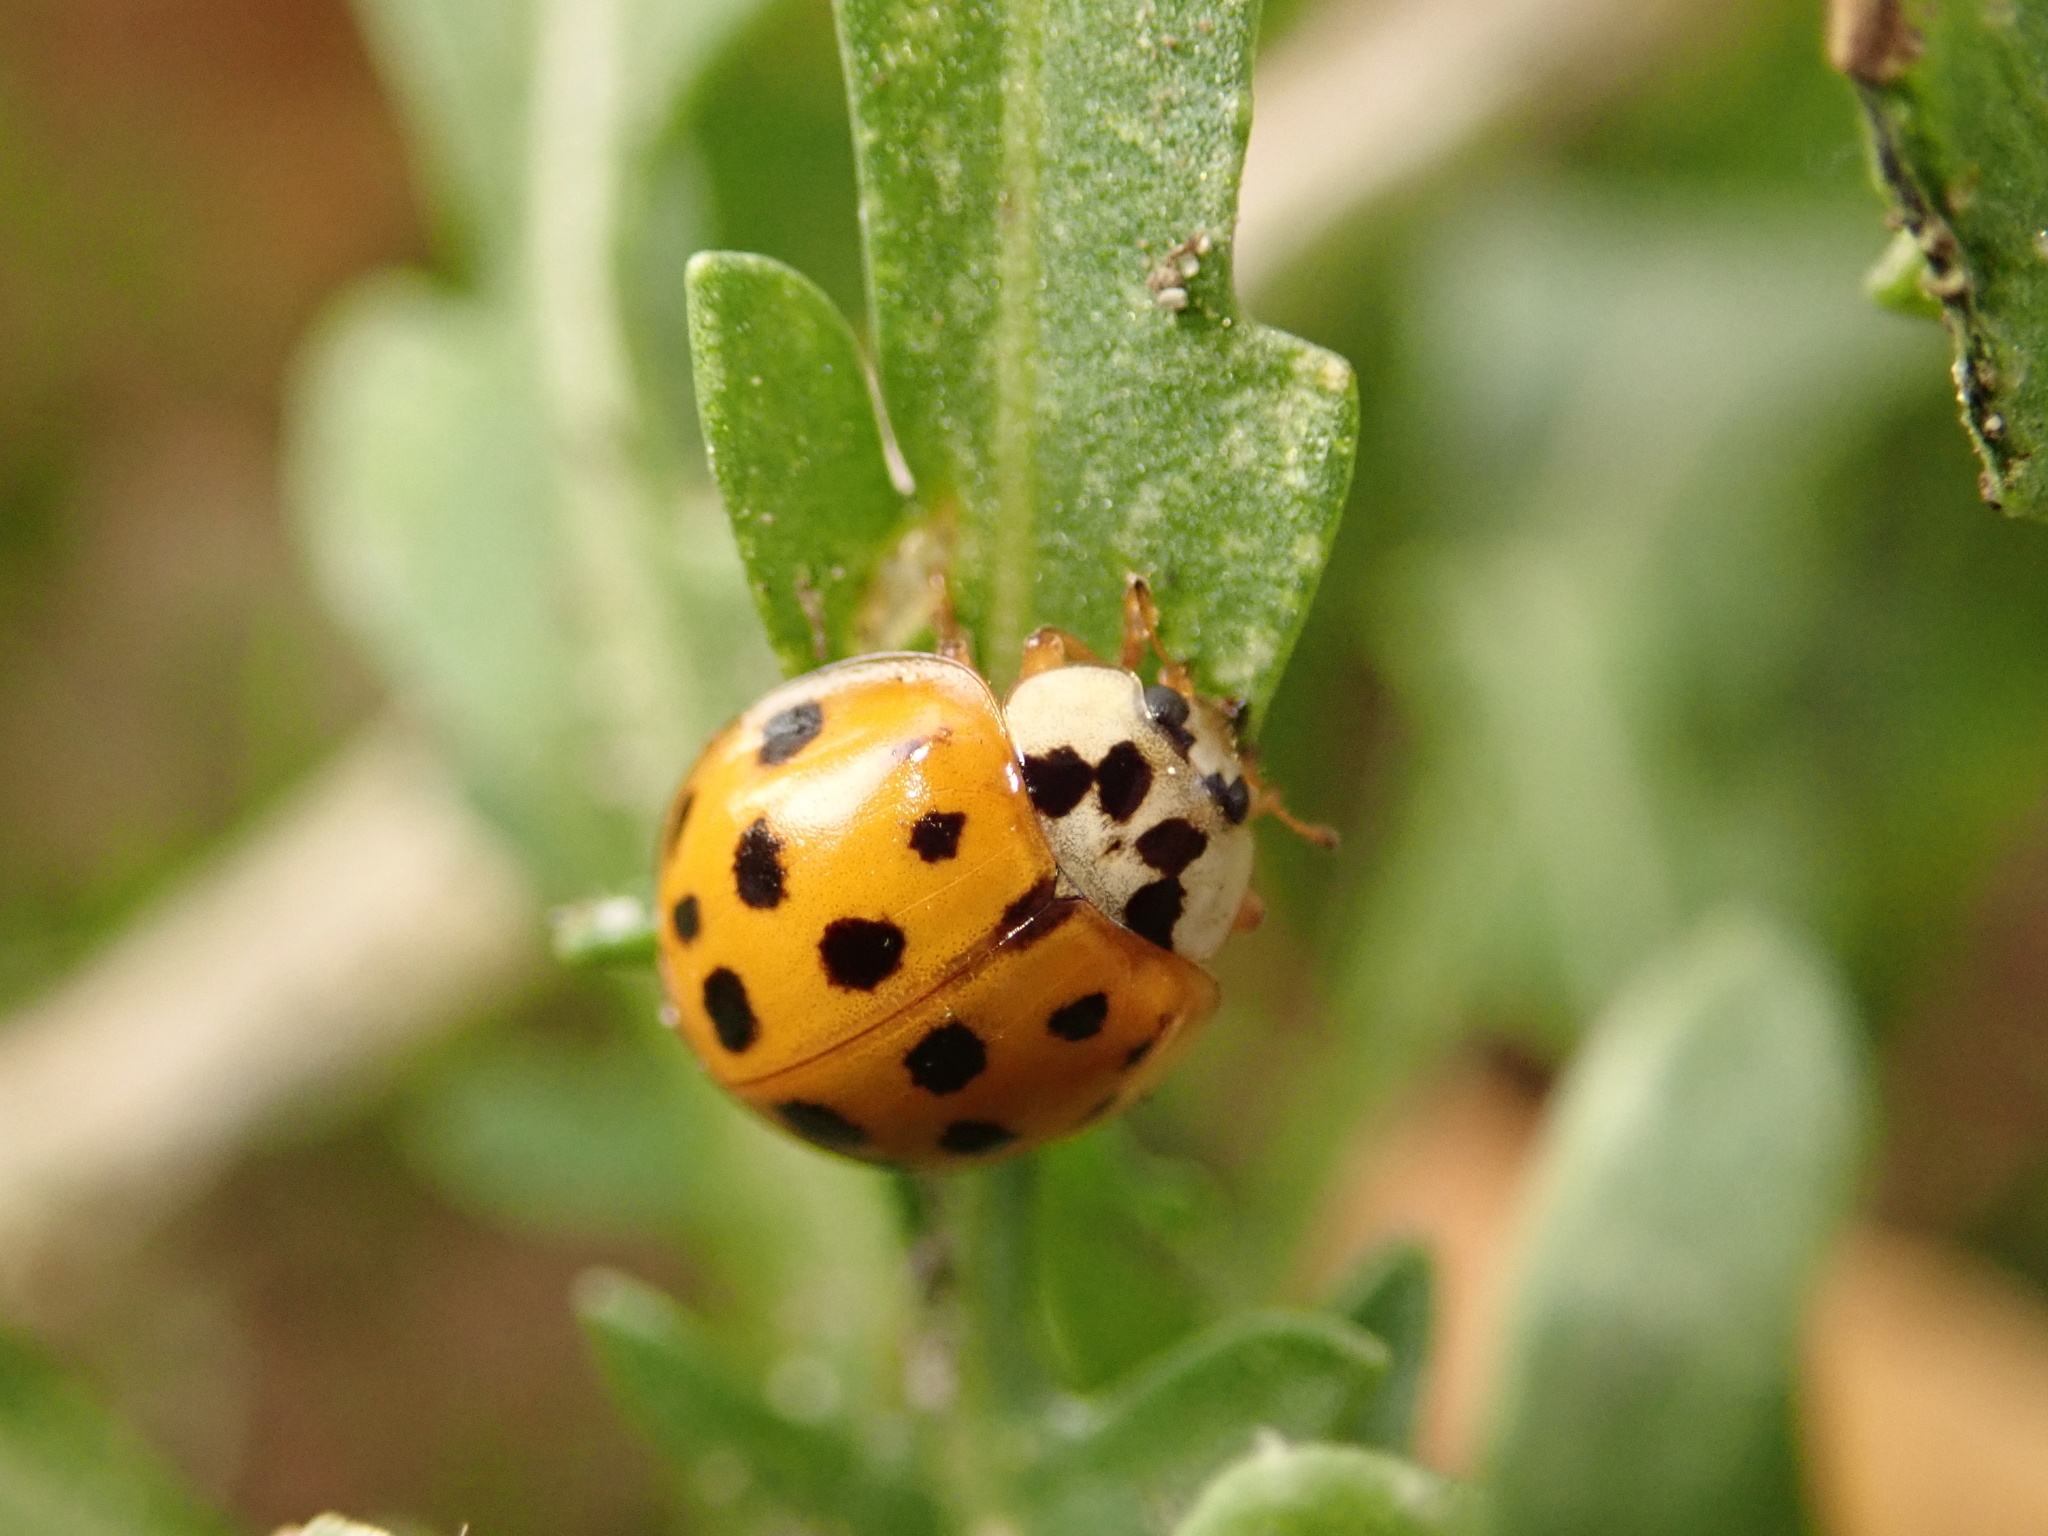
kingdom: Animalia
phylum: Arthropoda
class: Insecta
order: Coleoptera
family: Coccinellidae
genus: Harmonia
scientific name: Harmonia axyridis
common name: Harlequin ladybird
